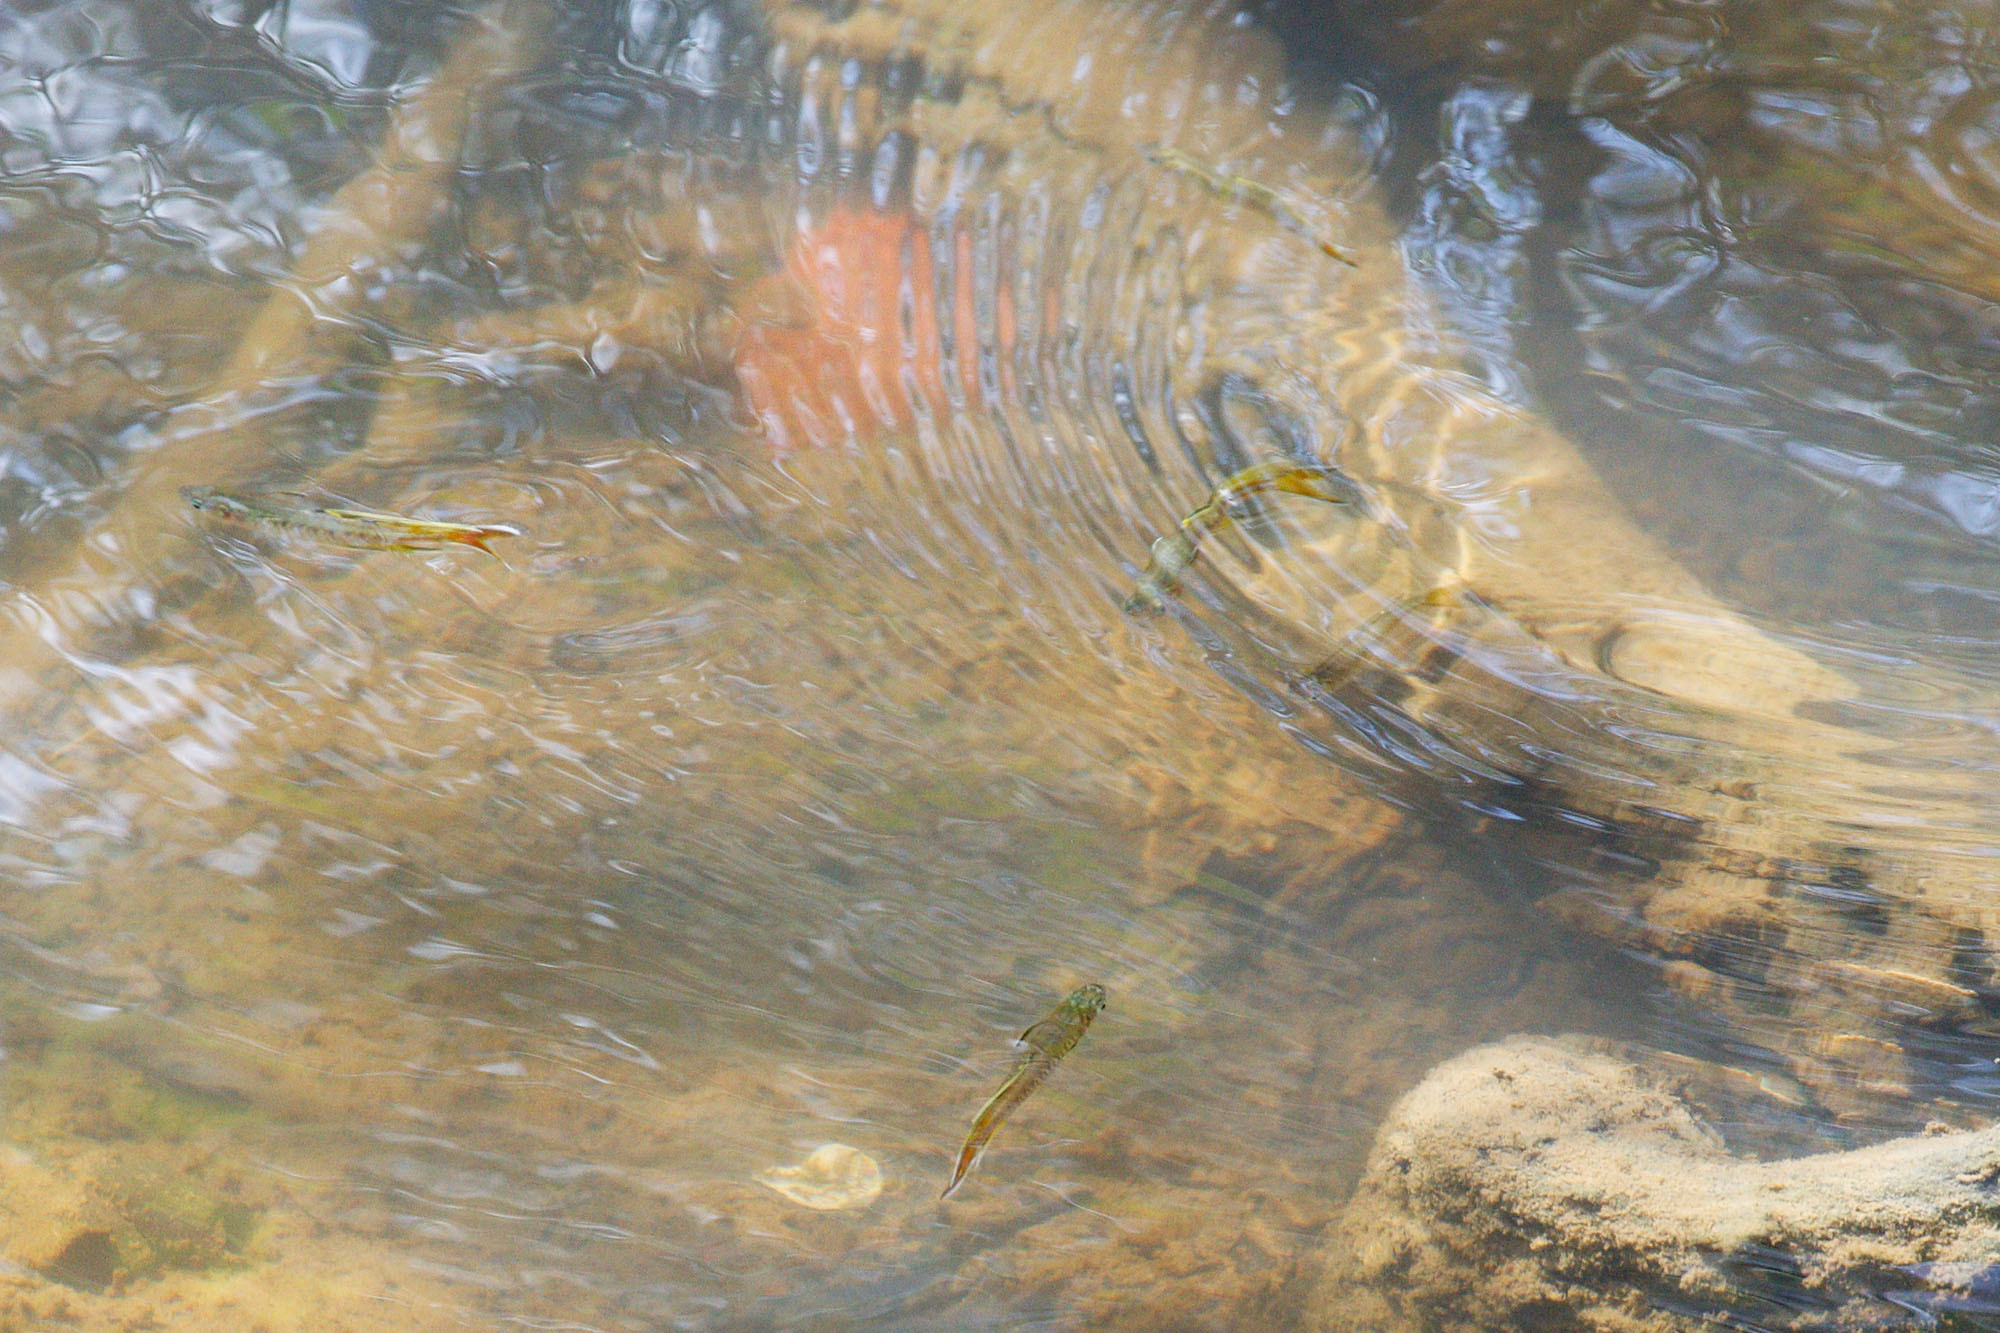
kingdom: Animalia
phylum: Chordata
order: Atheriniformes
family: Pseudomugilidae
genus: Pseudomugil
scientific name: Pseudomugil signifer
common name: Blue eye
